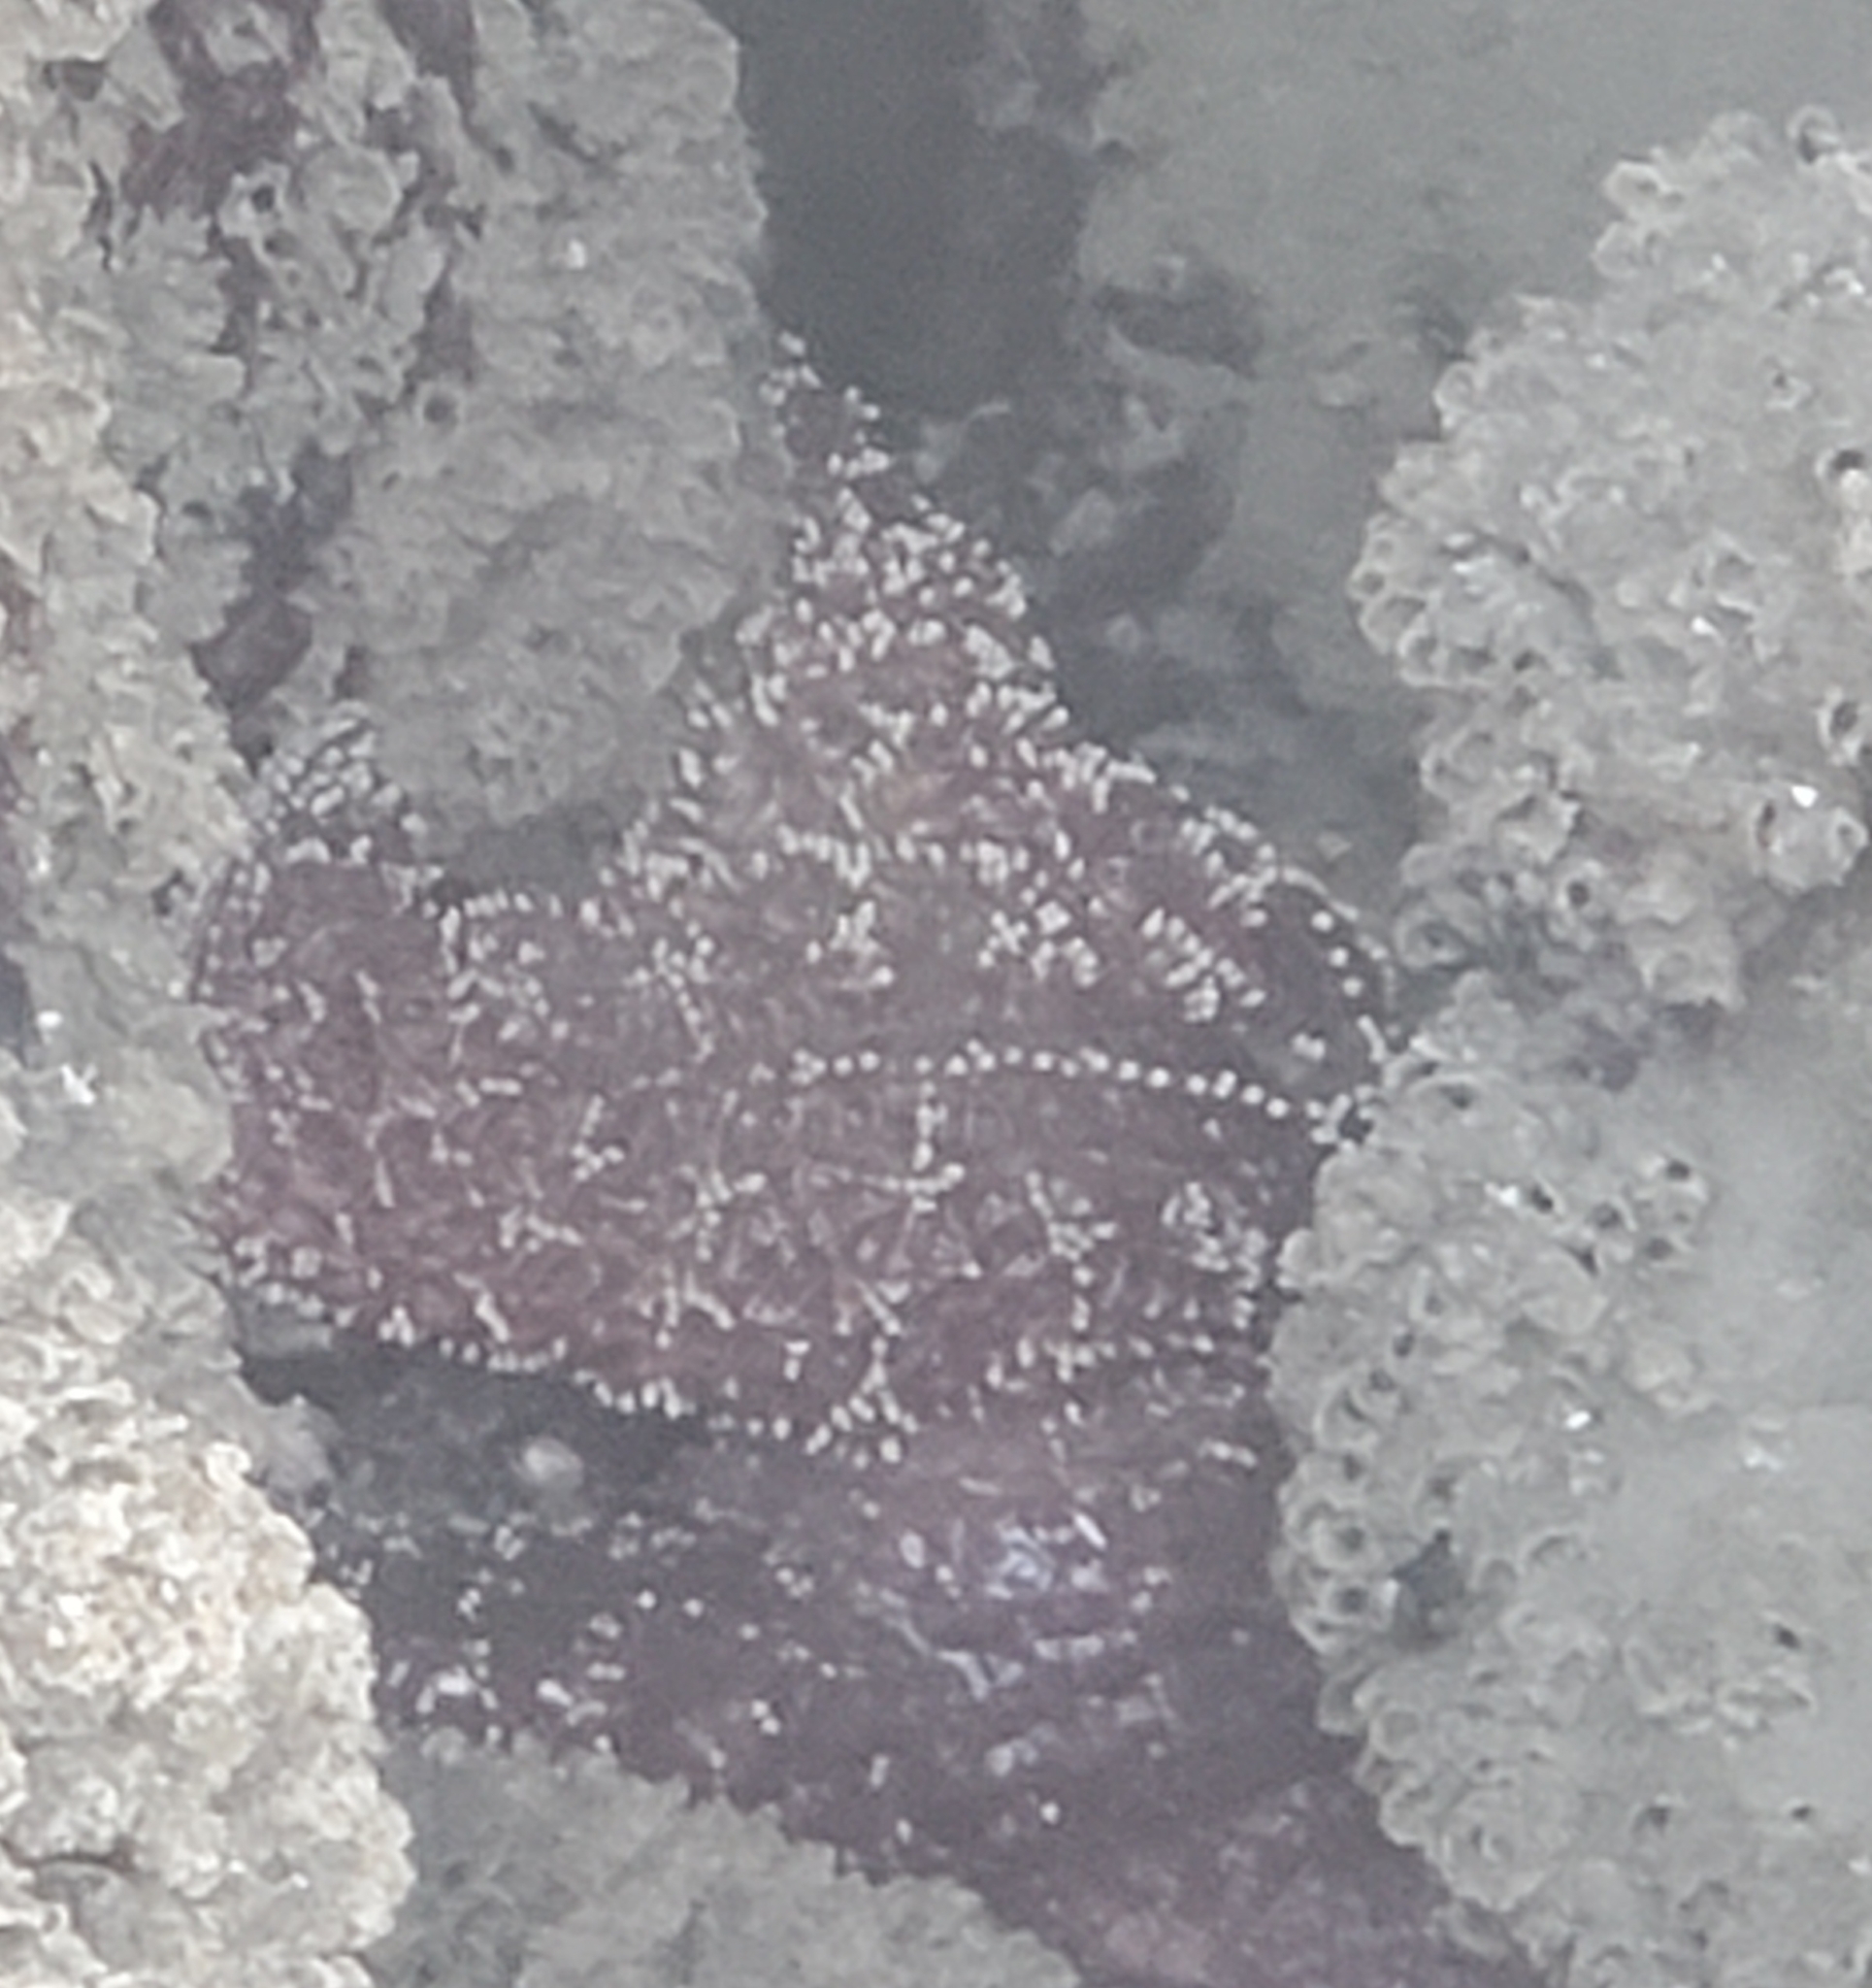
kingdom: Animalia
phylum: Echinodermata
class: Asteroidea
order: Forcipulatida
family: Asteriidae
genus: Pisaster
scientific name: Pisaster ochraceus
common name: Ochre stars
